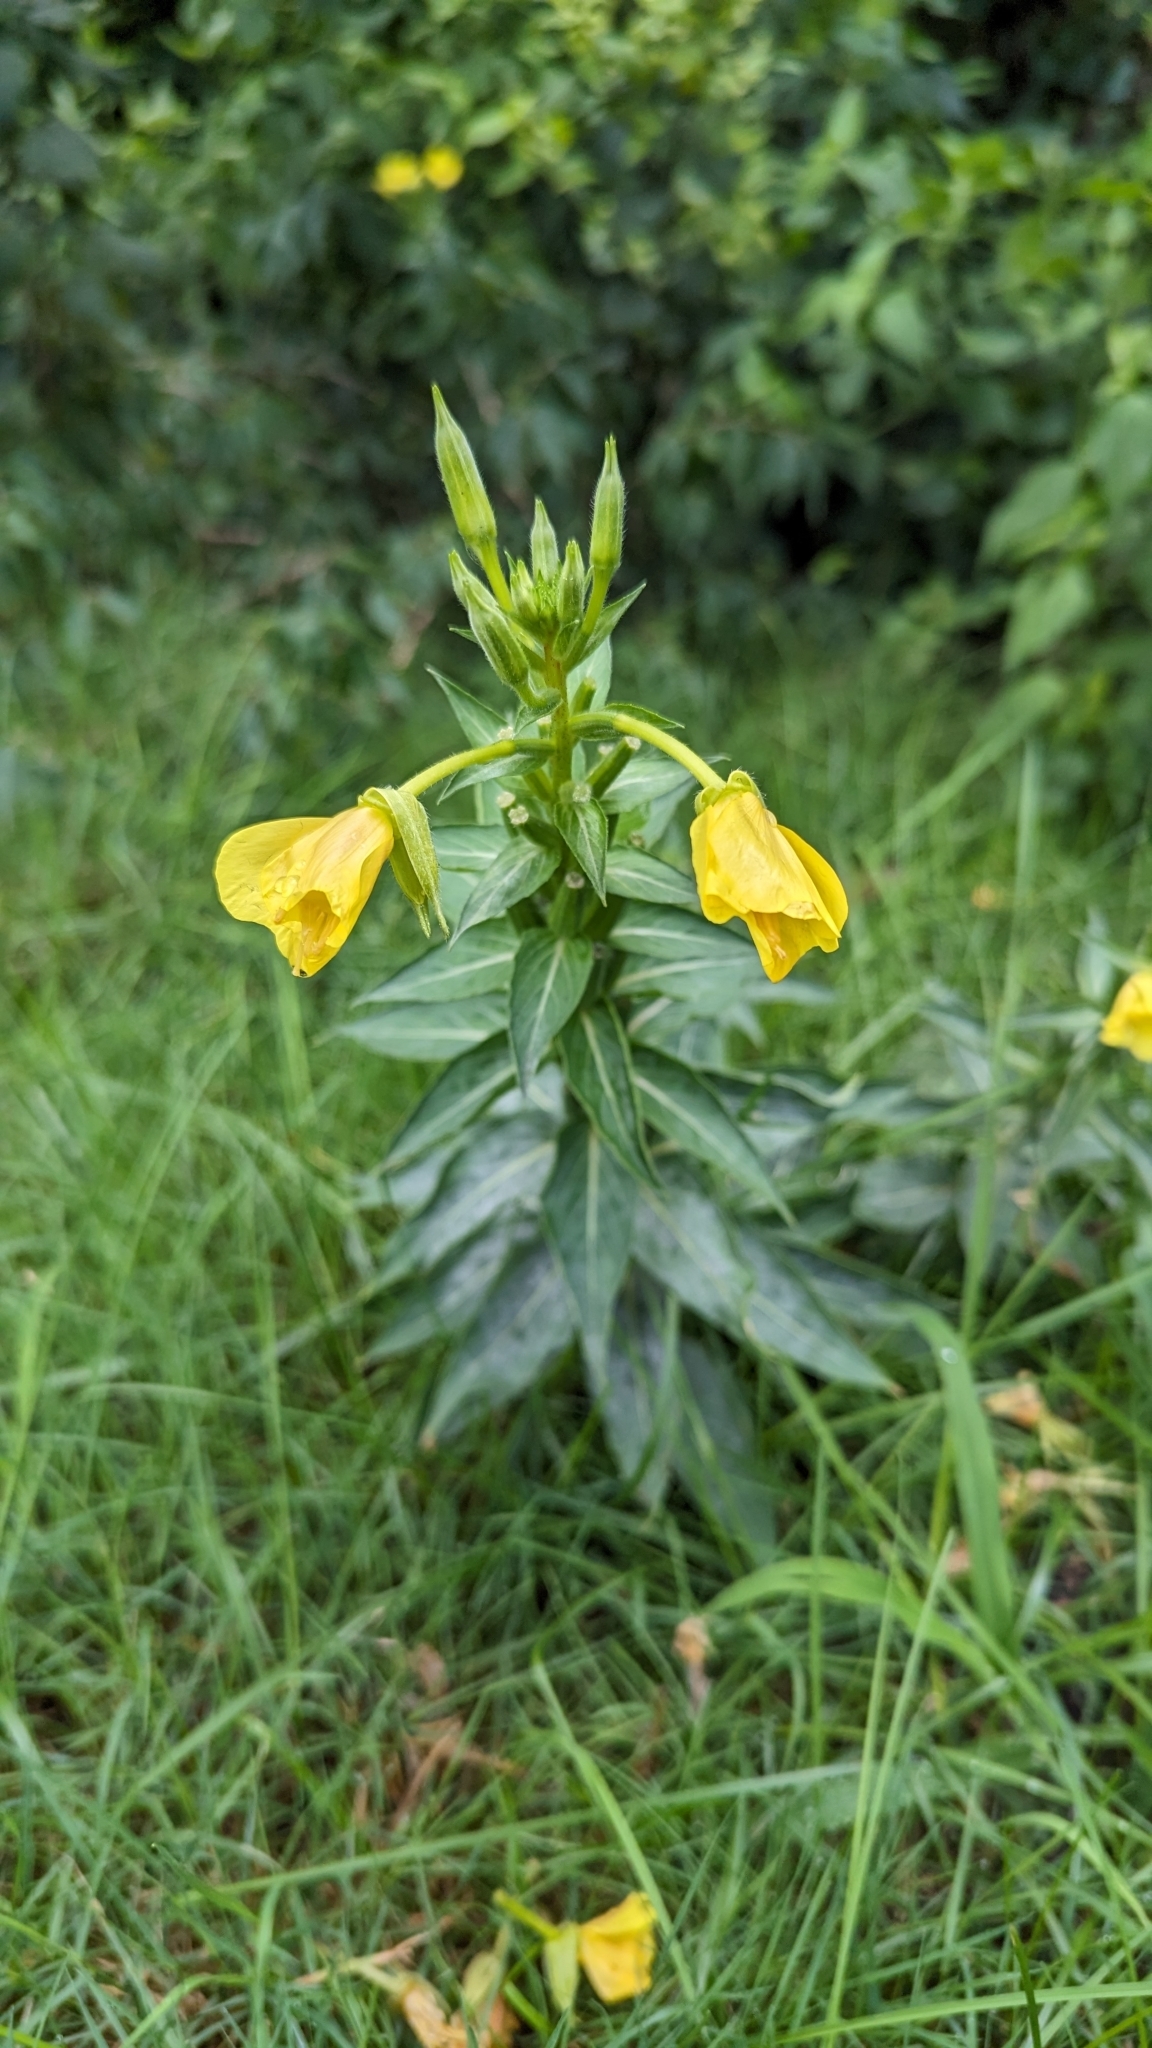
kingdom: Plantae
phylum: Tracheophyta
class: Magnoliopsida
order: Myrtales
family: Onagraceae
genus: Oenothera
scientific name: Oenothera biennis
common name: Common evening-primrose
